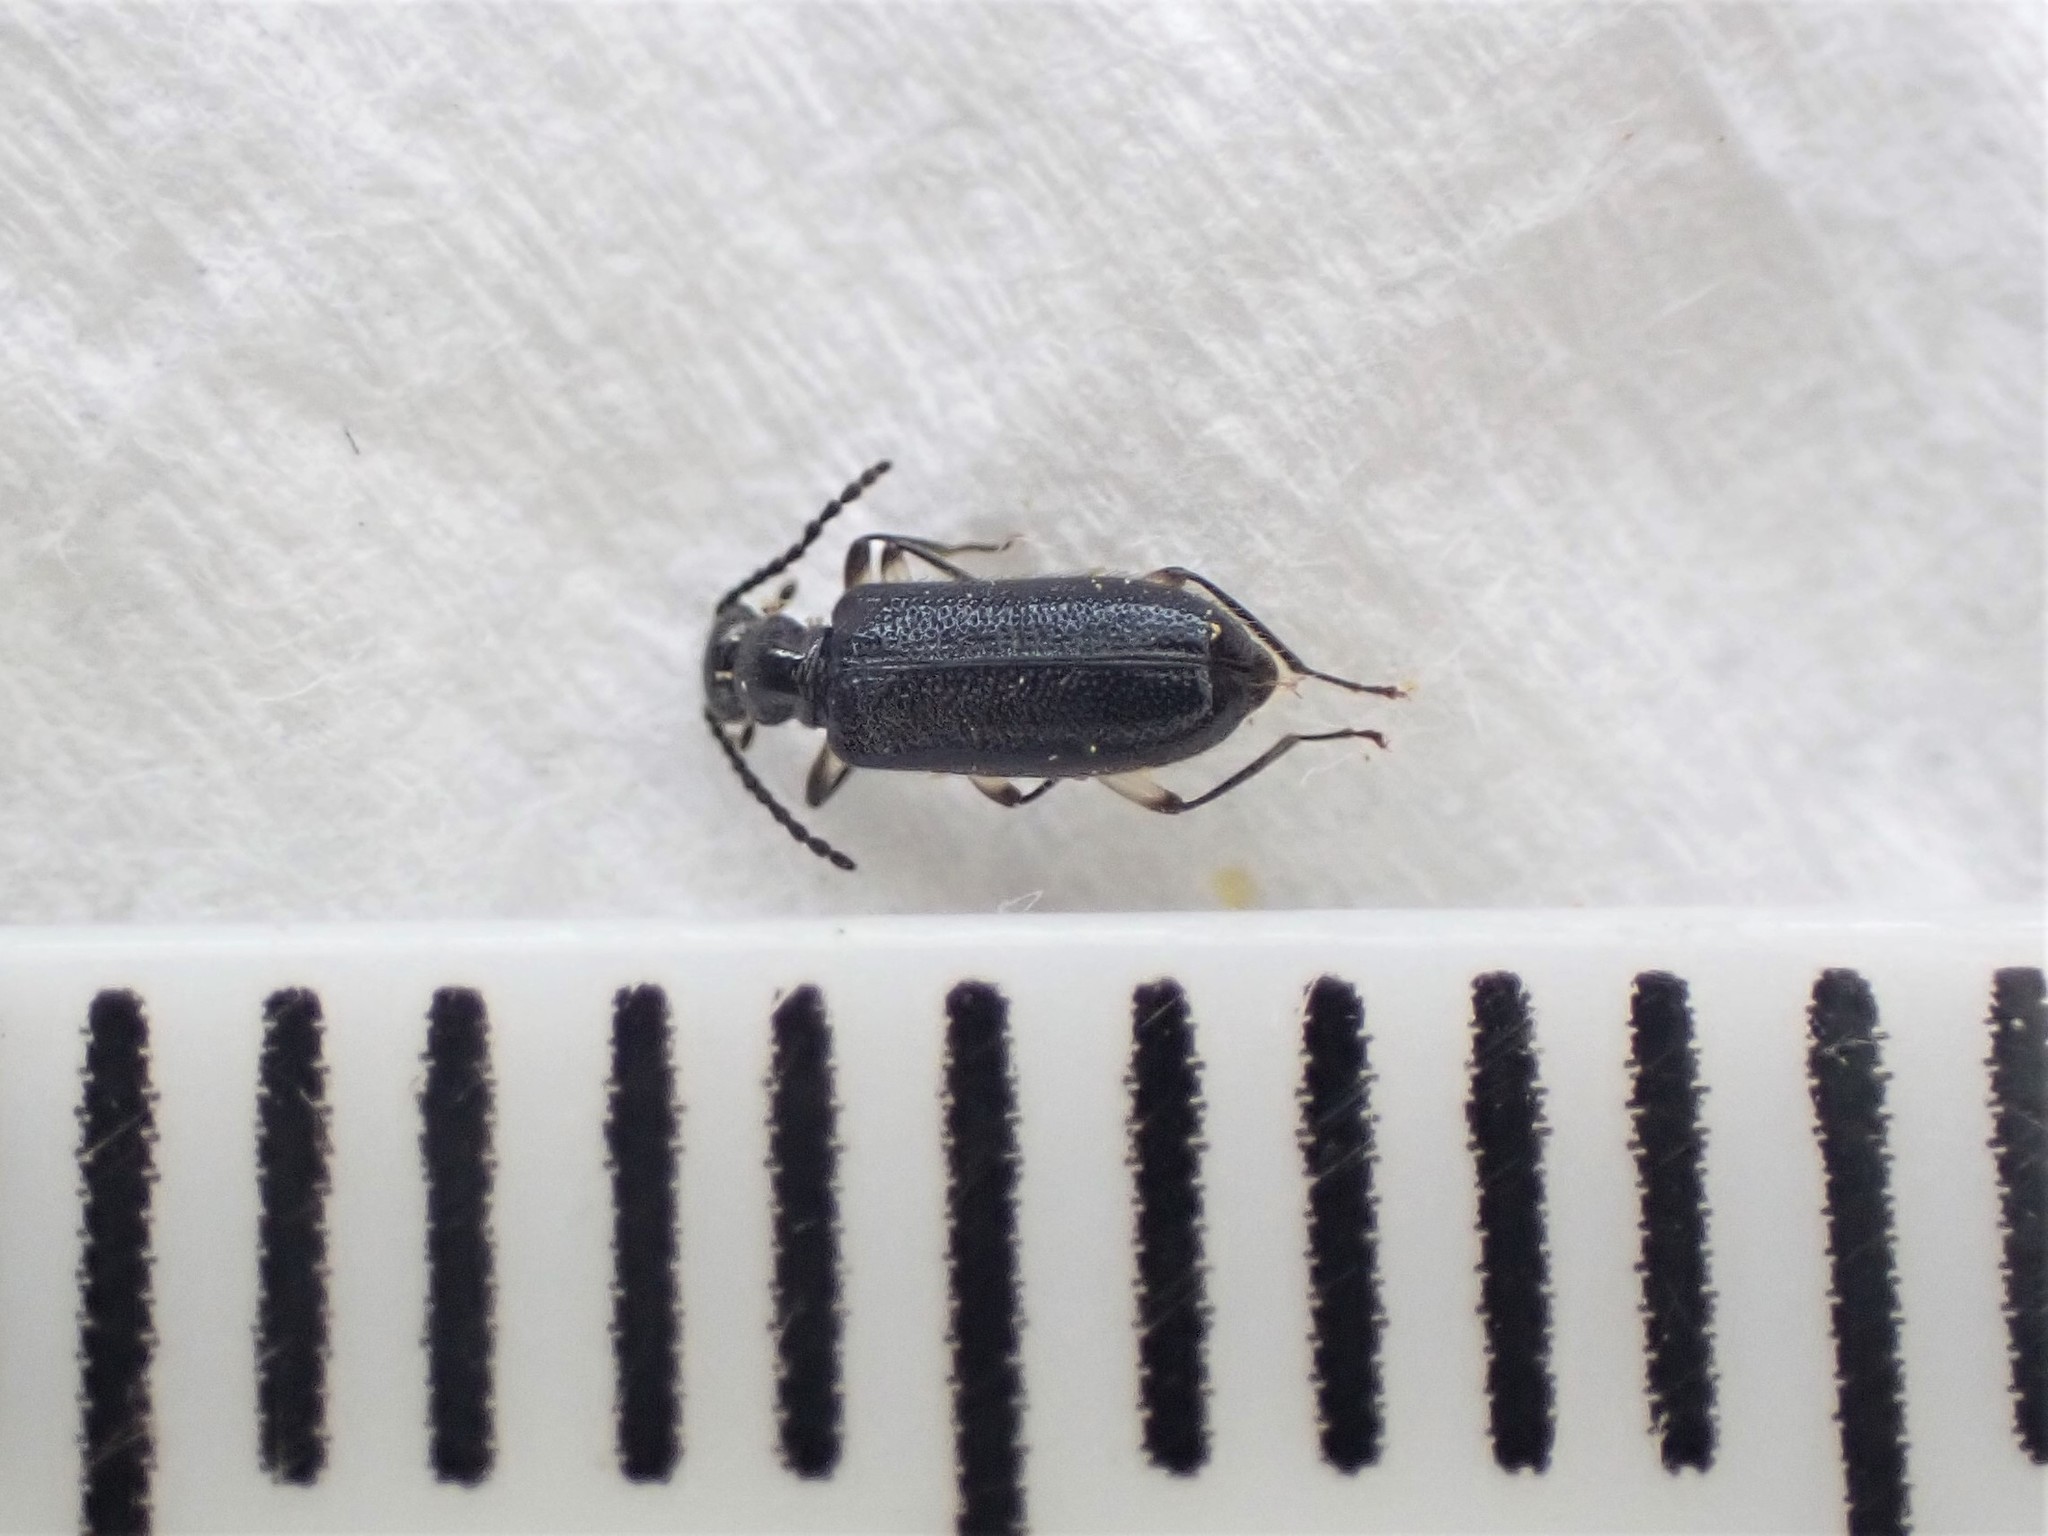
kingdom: Animalia
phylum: Arthropoda
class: Insecta
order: Coleoptera
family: Anthicidae
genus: Zealanthicus
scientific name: Zealanthicus sulcatus
